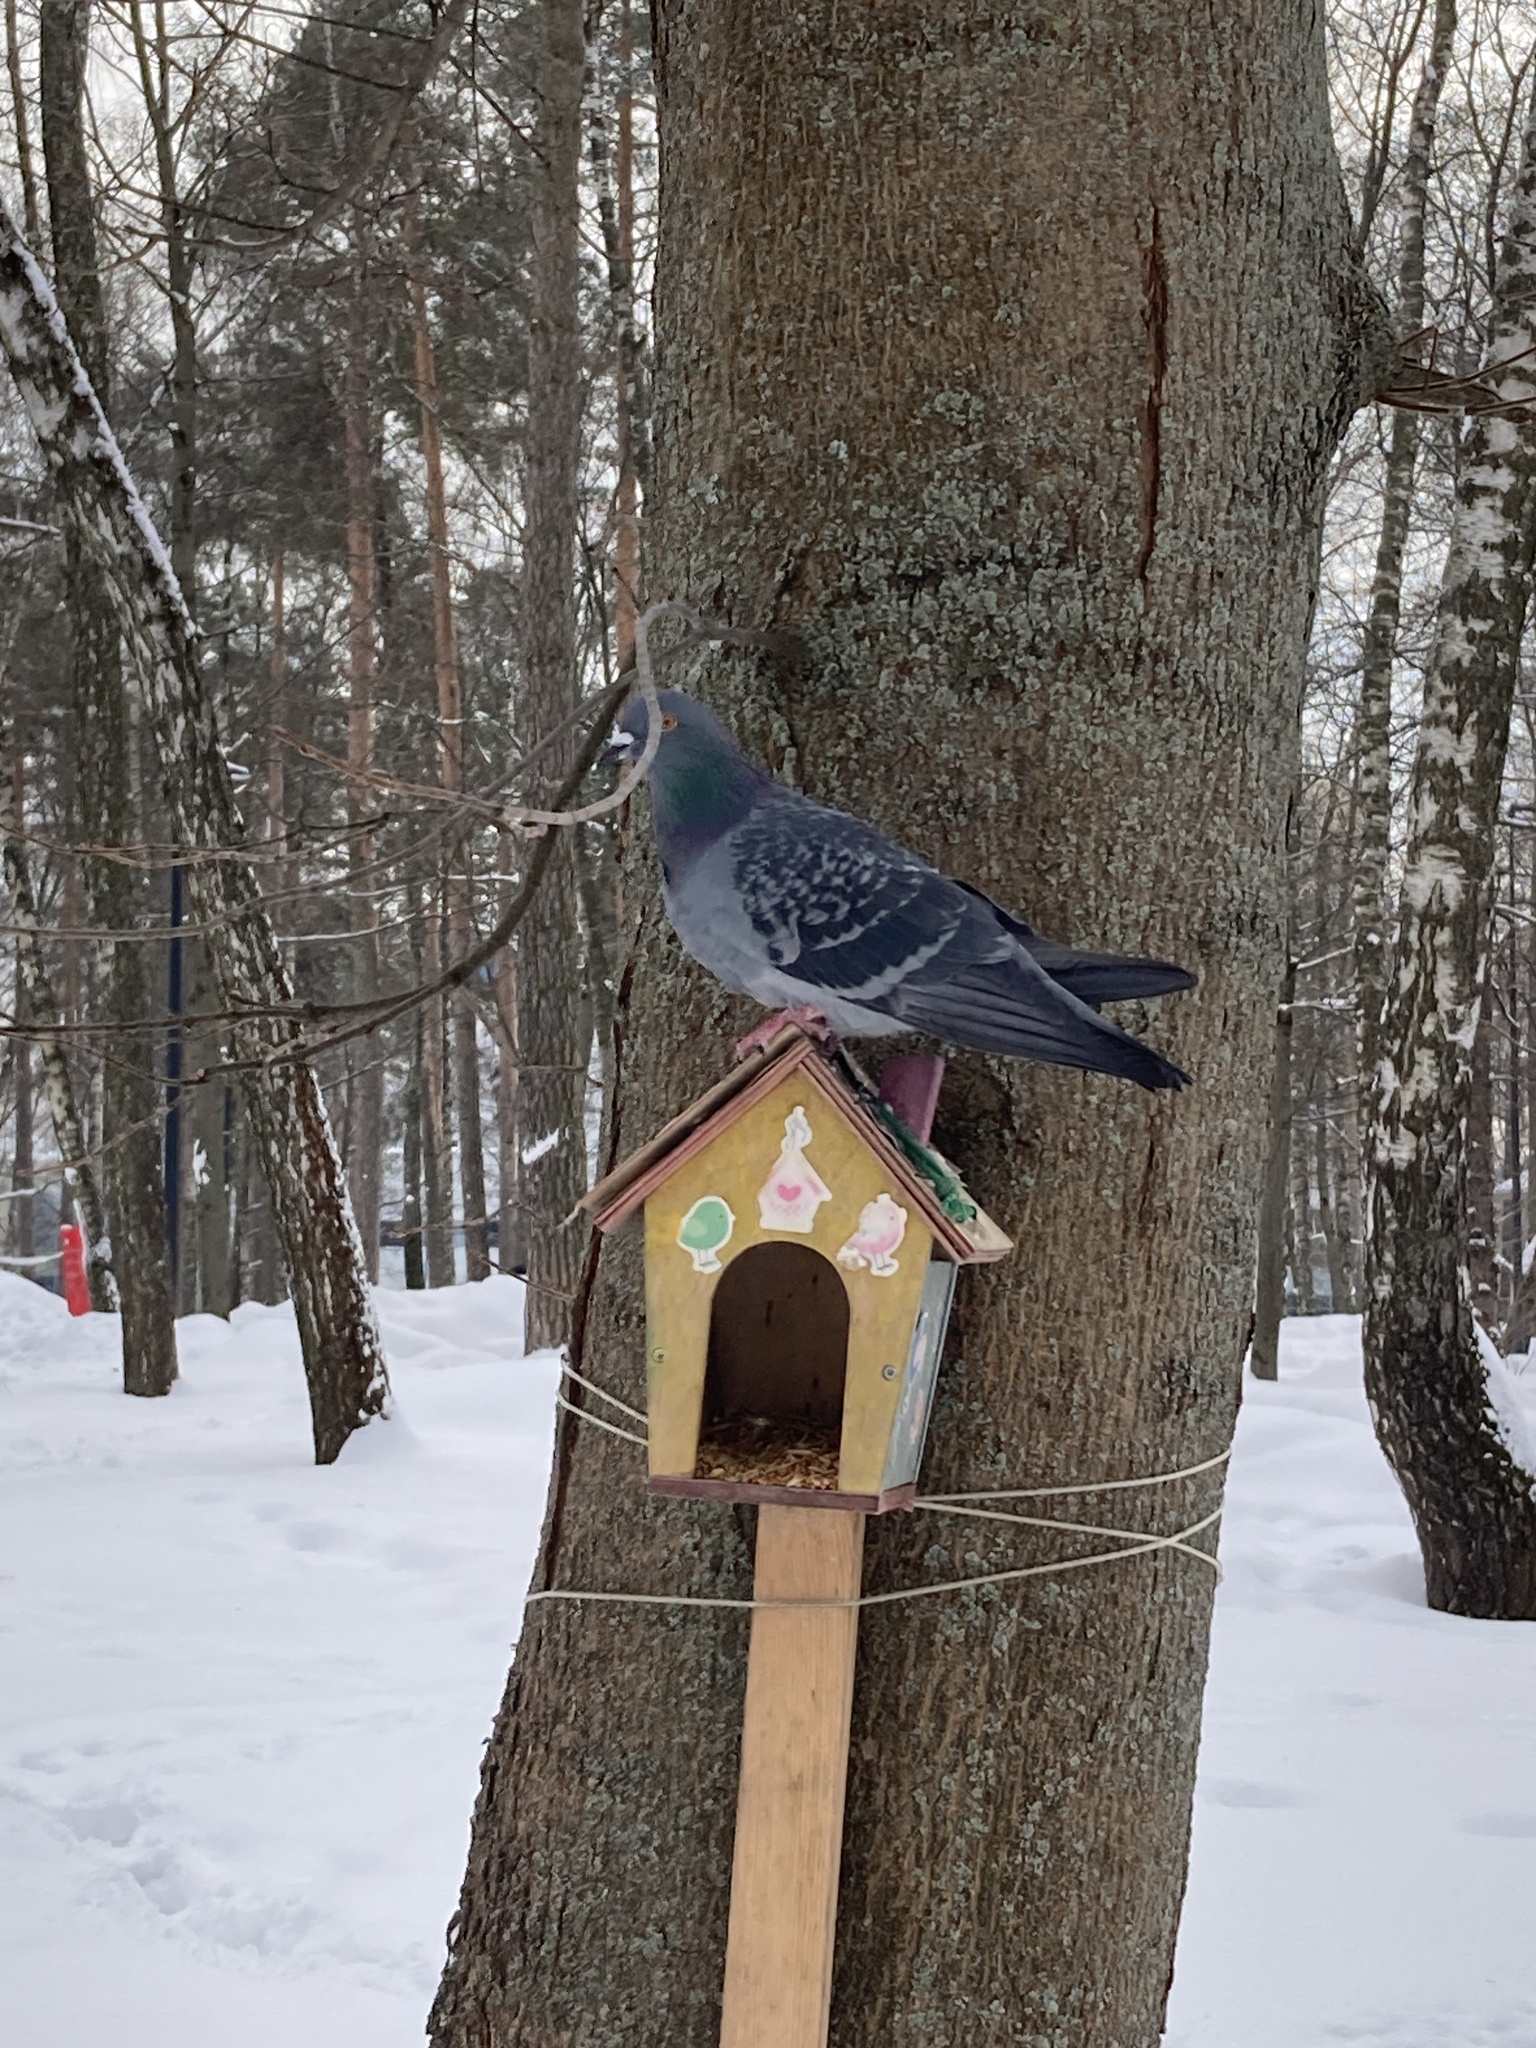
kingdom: Animalia
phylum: Chordata
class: Aves
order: Columbiformes
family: Columbidae
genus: Columba
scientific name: Columba livia
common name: Rock pigeon
